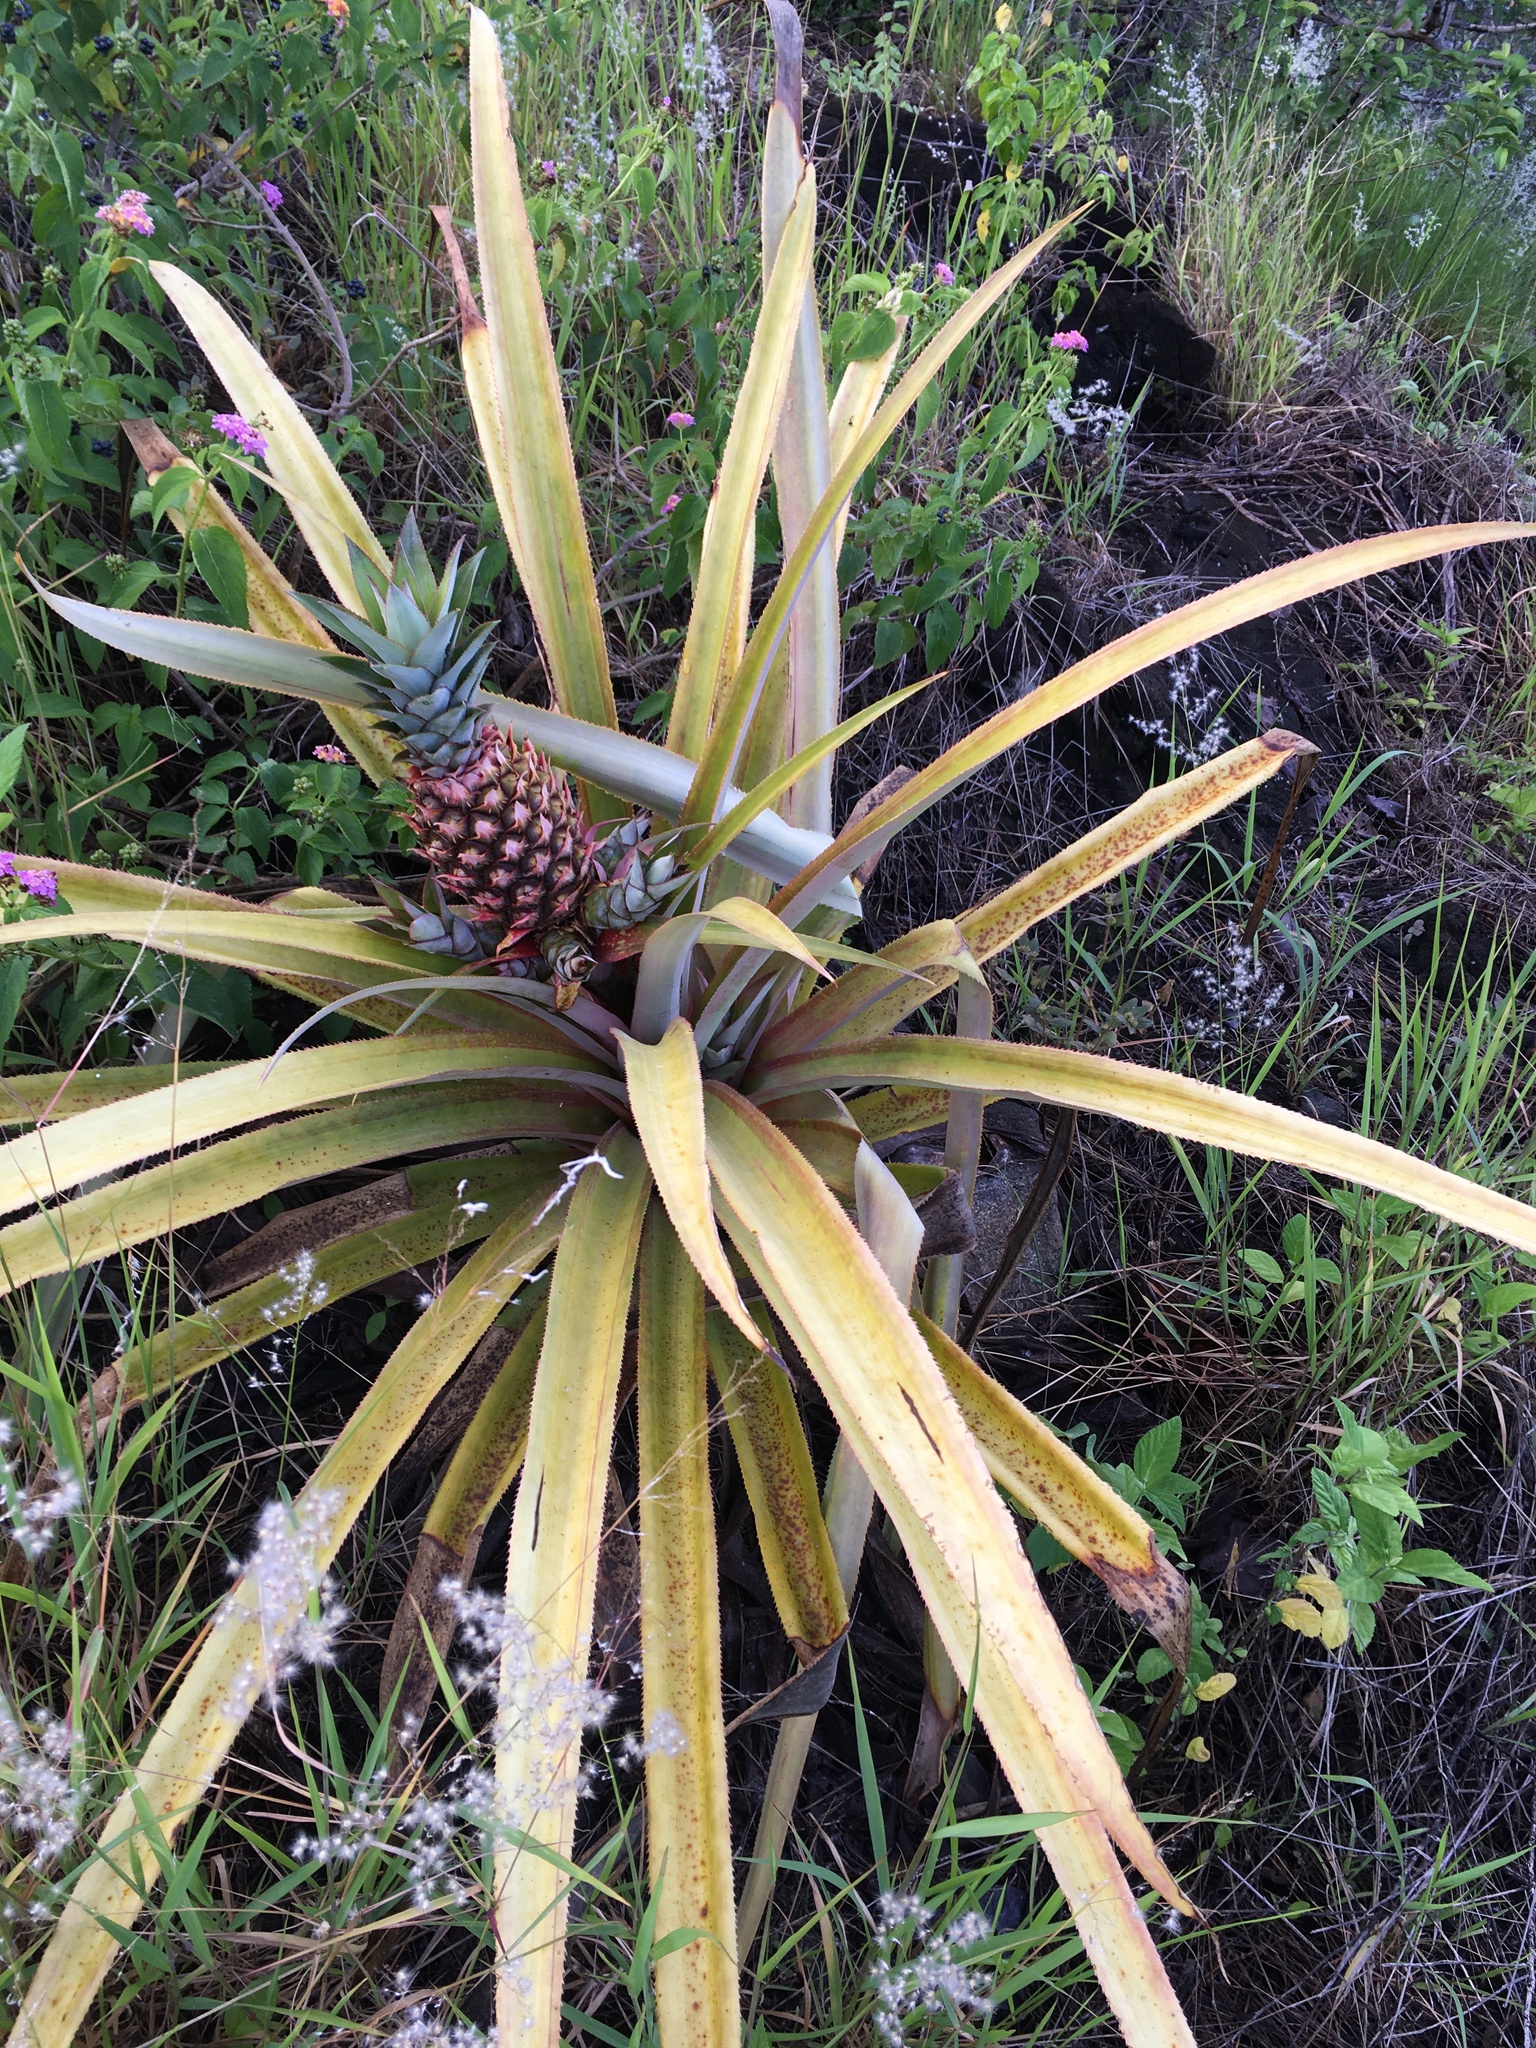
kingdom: Plantae
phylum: Tracheophyta
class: Liliopsida
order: Poales
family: Bromeliaceae
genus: Ananas
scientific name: Ananas comosus
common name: Pineapple
